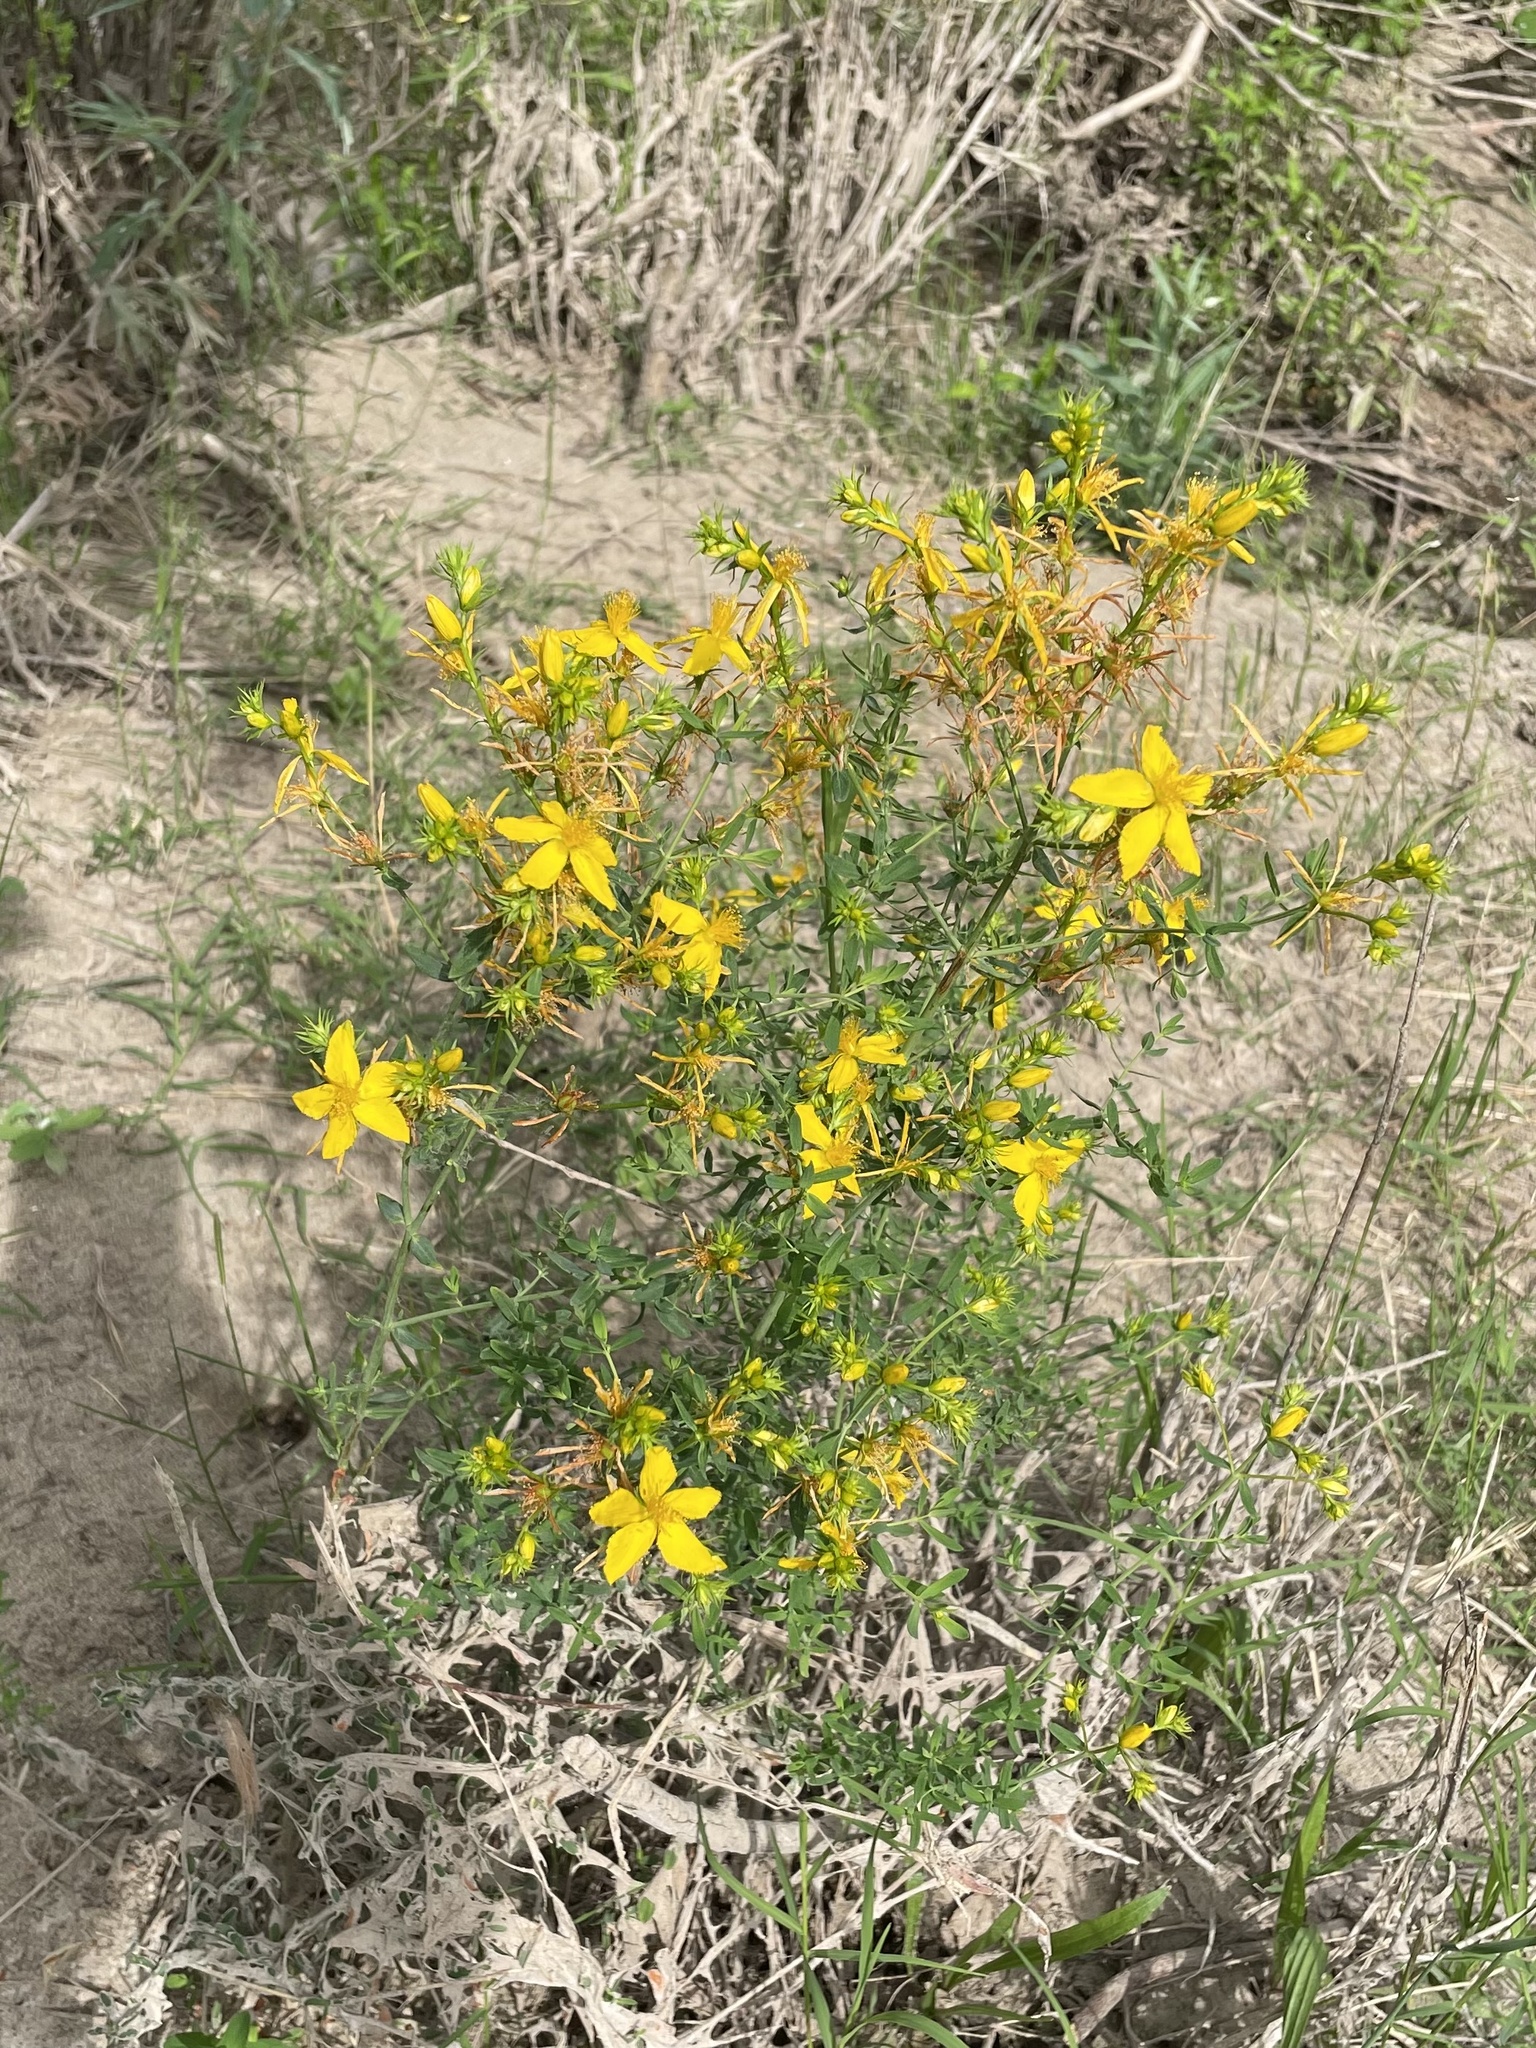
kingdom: Plantae
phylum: Tracheophyta
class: Magnoliopsida
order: Malpighiales
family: Hypericaceae
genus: Hypericum
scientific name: Hypericum perforatum
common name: Common st. johnswort
